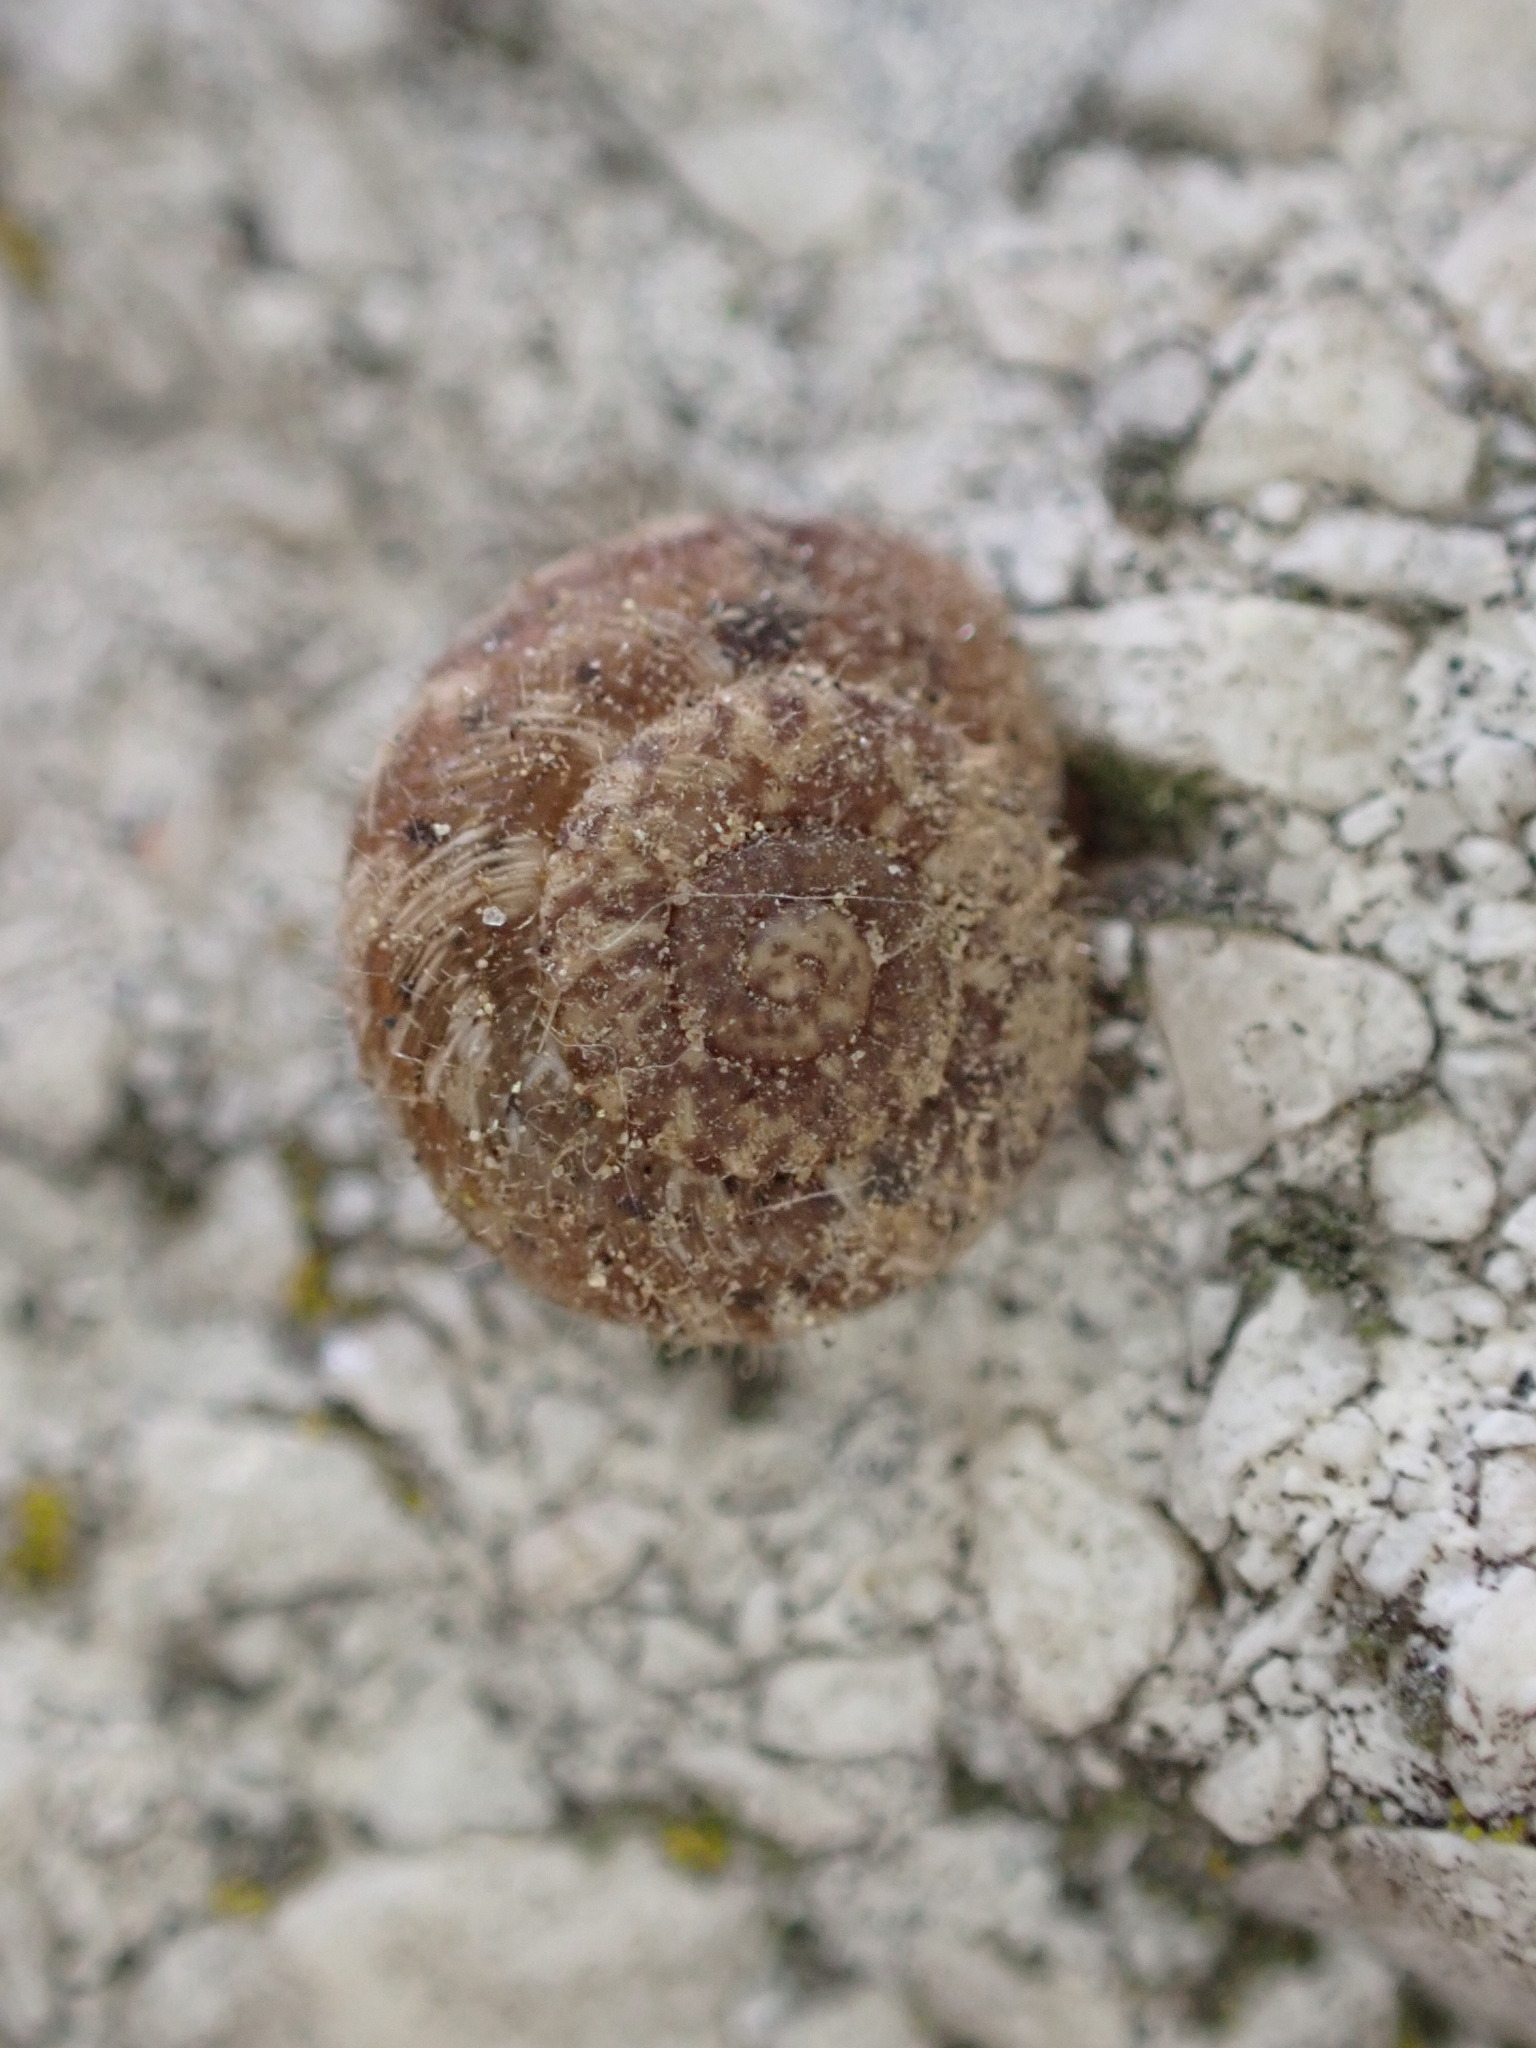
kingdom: Animalia
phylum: Mollusca
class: Gastropoda
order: Stylommatophora
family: Geomitridae
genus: Xerotricha
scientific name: Xerotricha conspurcata
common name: Snail
